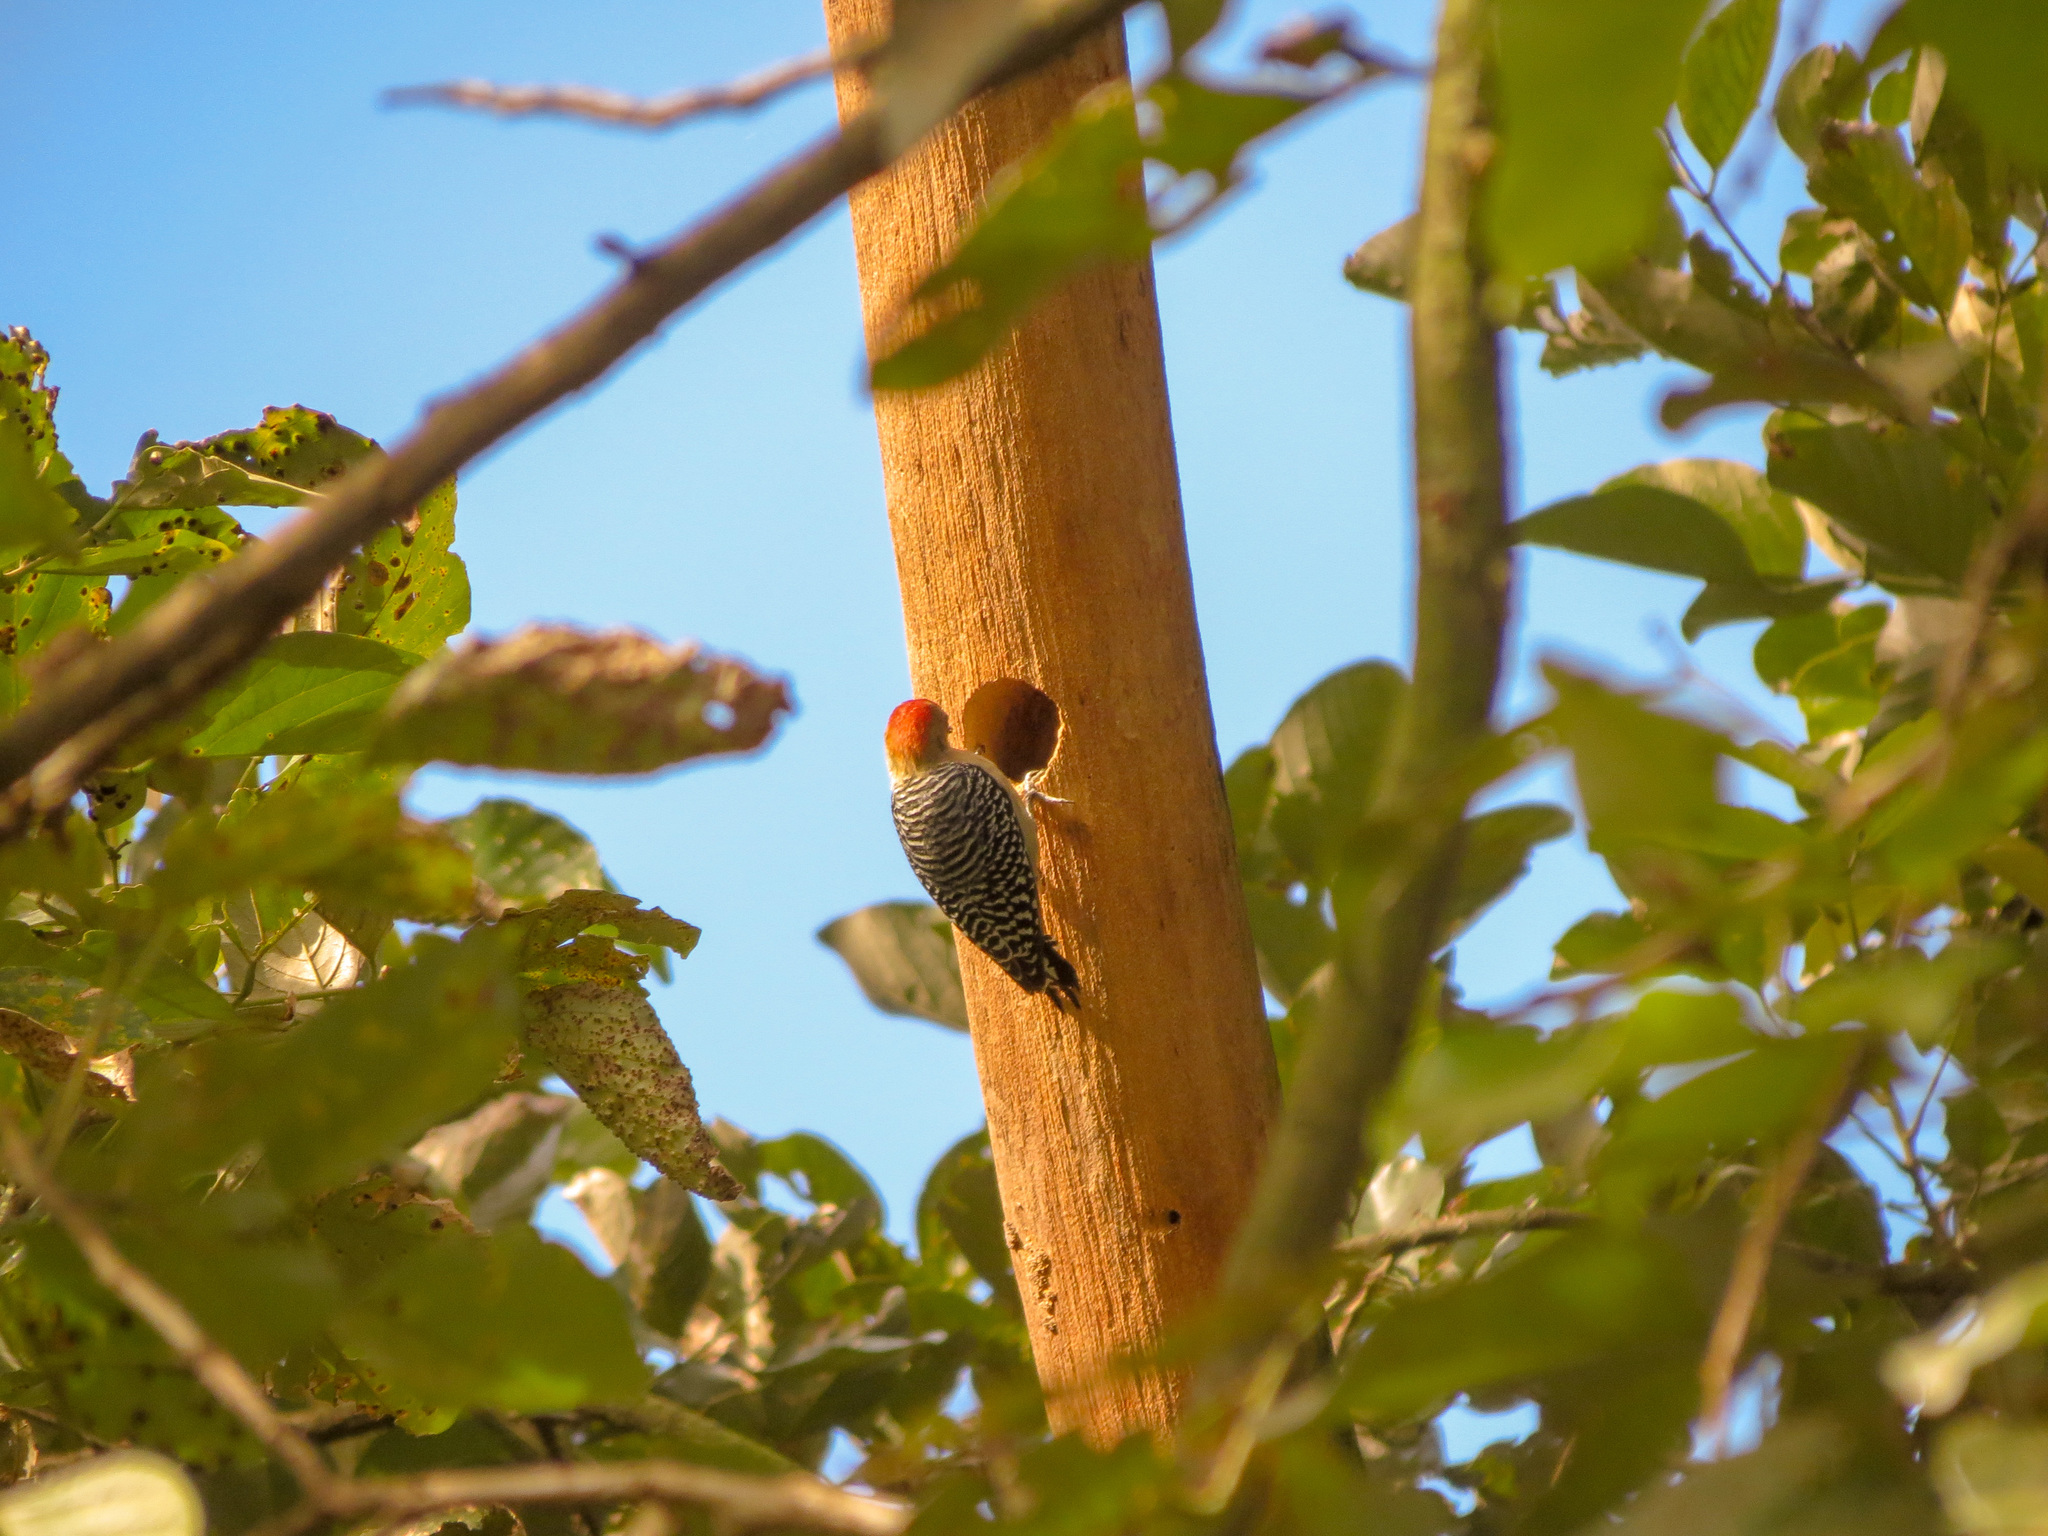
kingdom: Animalia
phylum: Chordata
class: Aves
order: Piciformes
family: Picidae
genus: Melanerpes
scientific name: Melanerpes rubricapillus
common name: Red-crowned woodpecker
